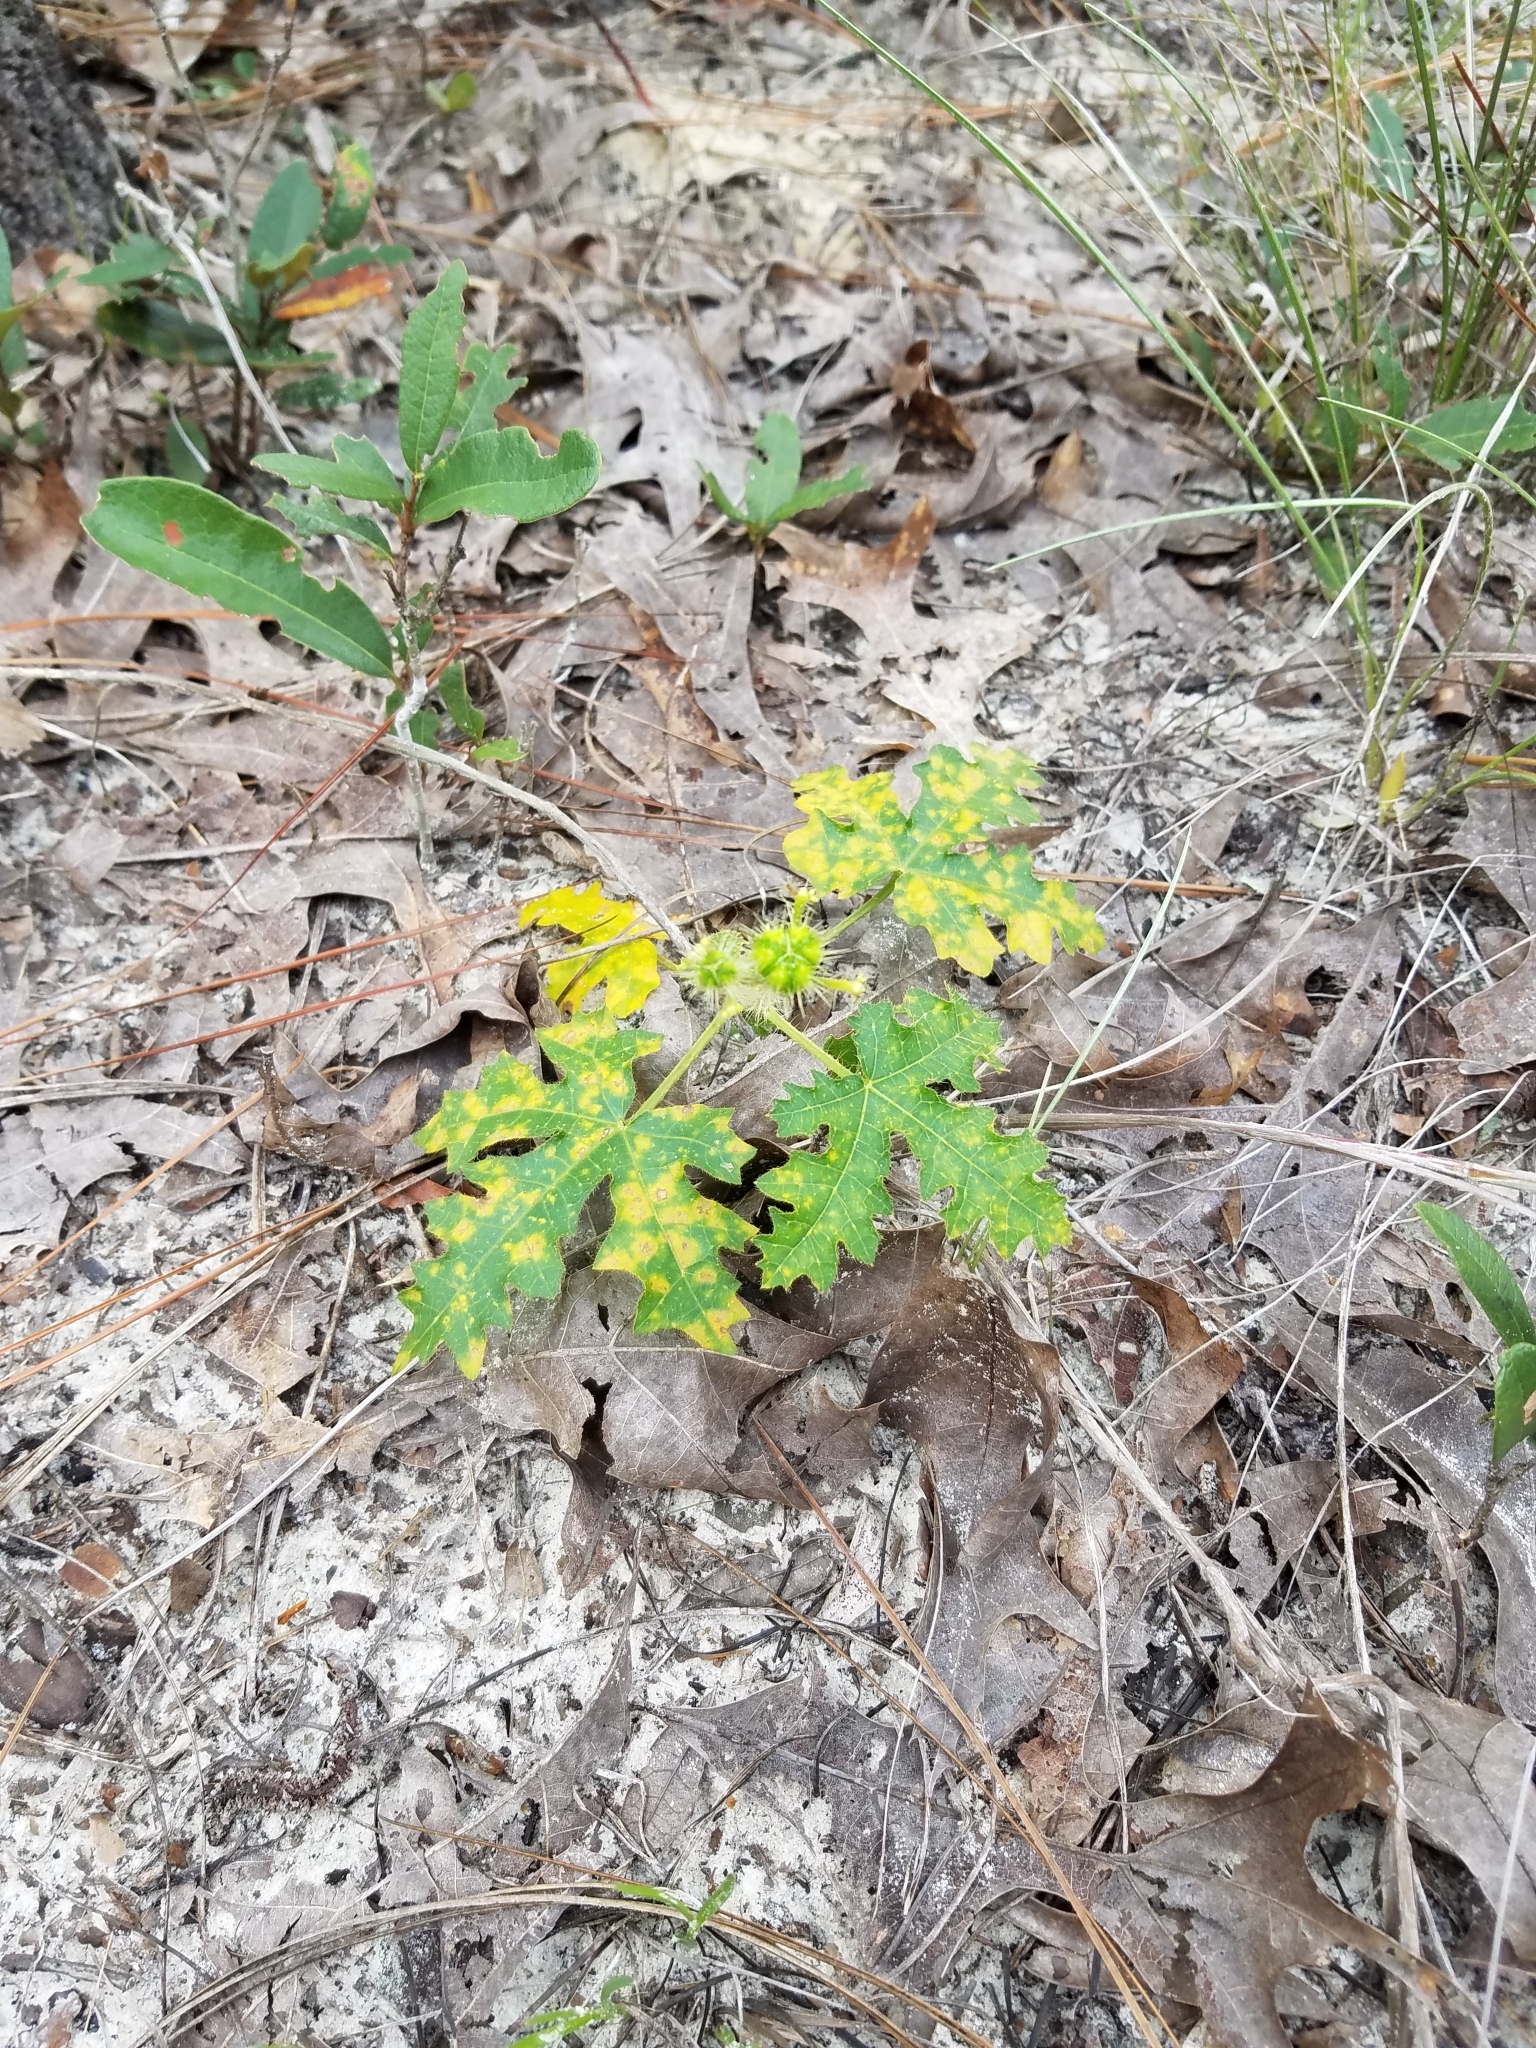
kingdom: Plantae
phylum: Tracheophyta
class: Magnoliopsida
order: Malpighiales
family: Euphorbiaceae
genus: Cnidoscolus
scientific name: Cnidoscolus stimulosus
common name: Bull-nettle
